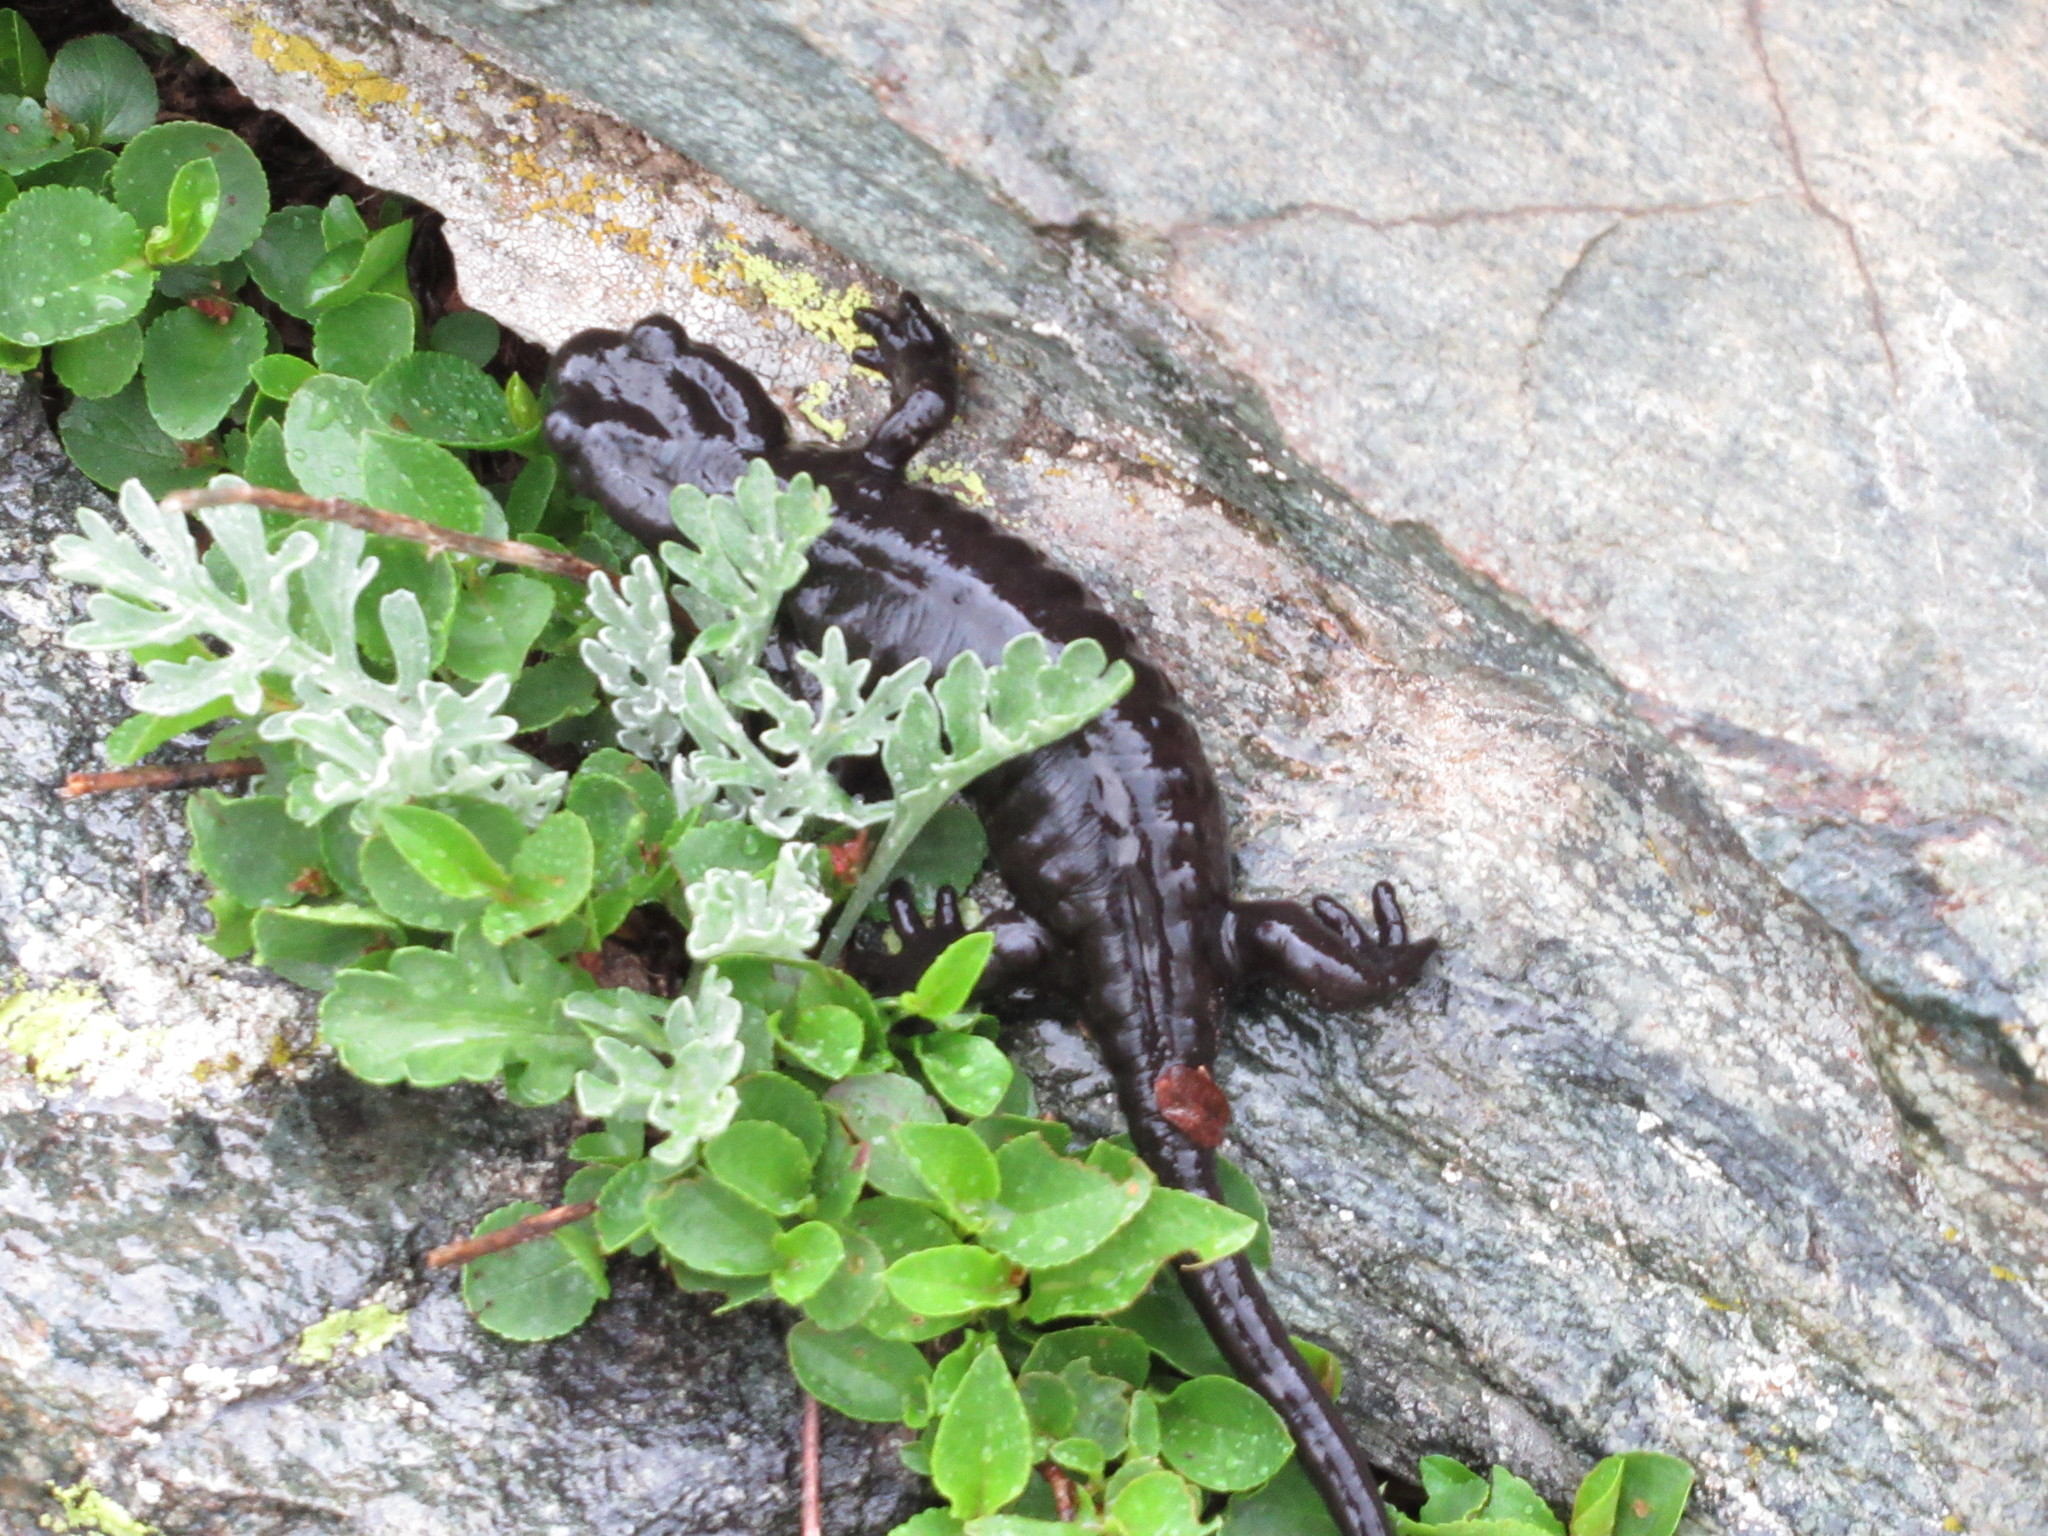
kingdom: Animalia
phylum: Chordata
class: Amphibia
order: Caudata
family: Salamandridae
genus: Salamandra
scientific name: Salamandra lanzai
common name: Lanzas fire salamander
